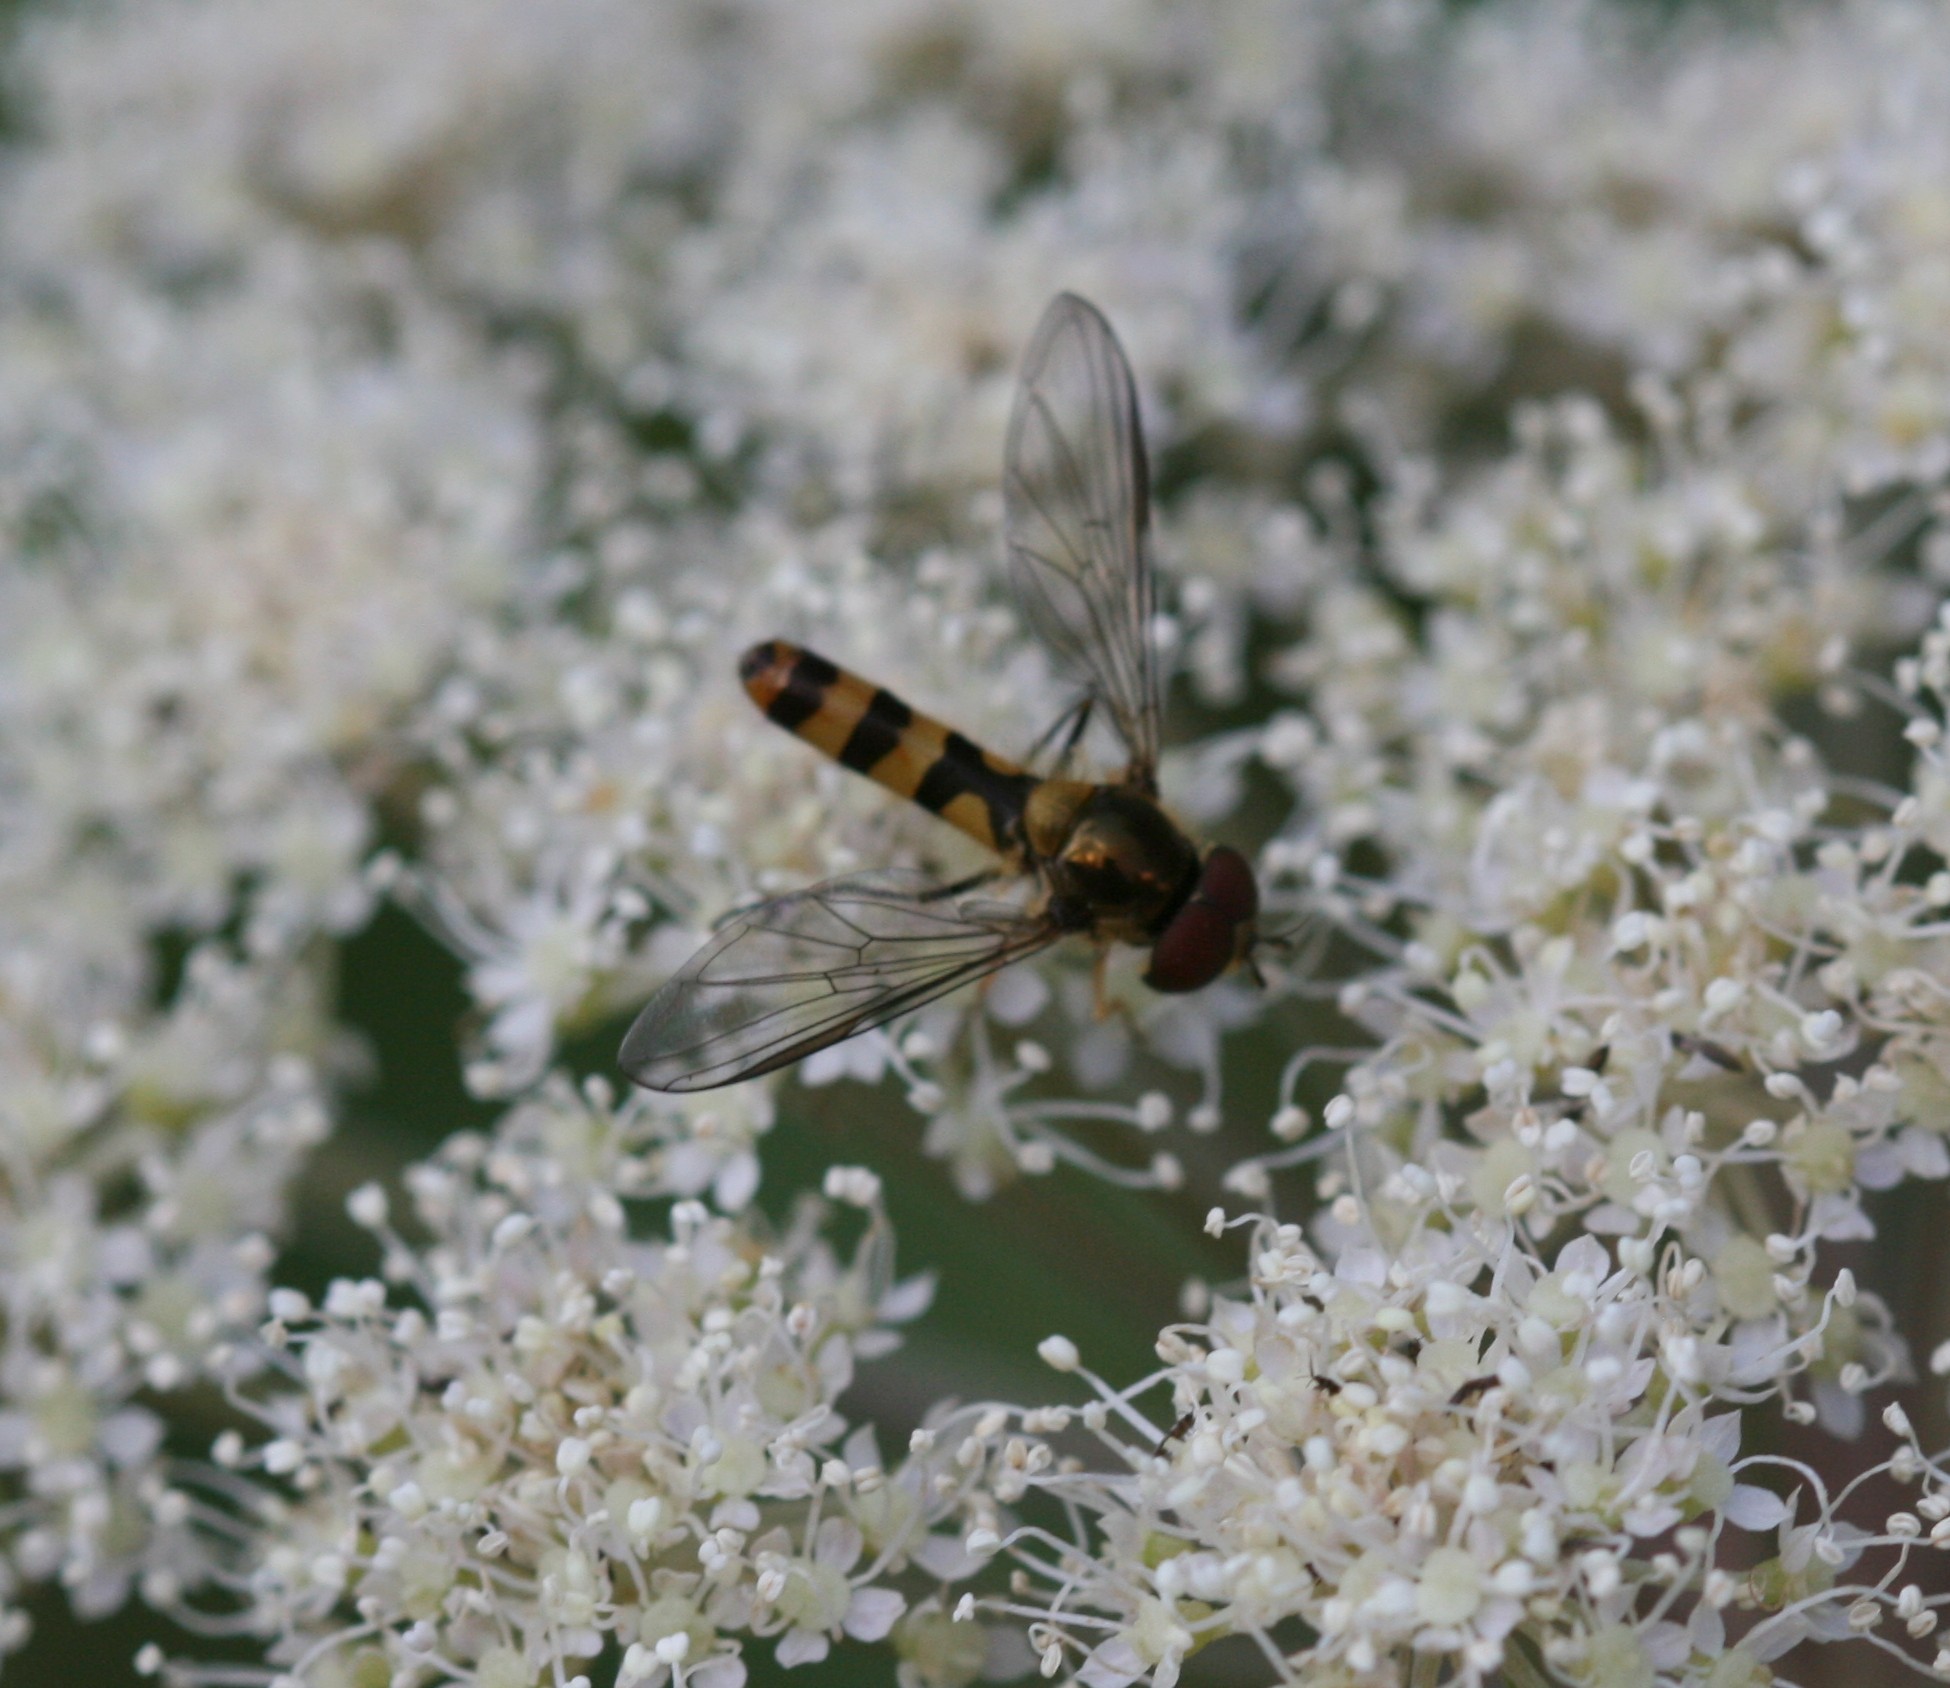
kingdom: Animalia
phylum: Arthropoda
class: Insecta
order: Diptera
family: Syrphidae
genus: Meliscaeva
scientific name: Meliscaeva cinctella
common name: American thintail fly
